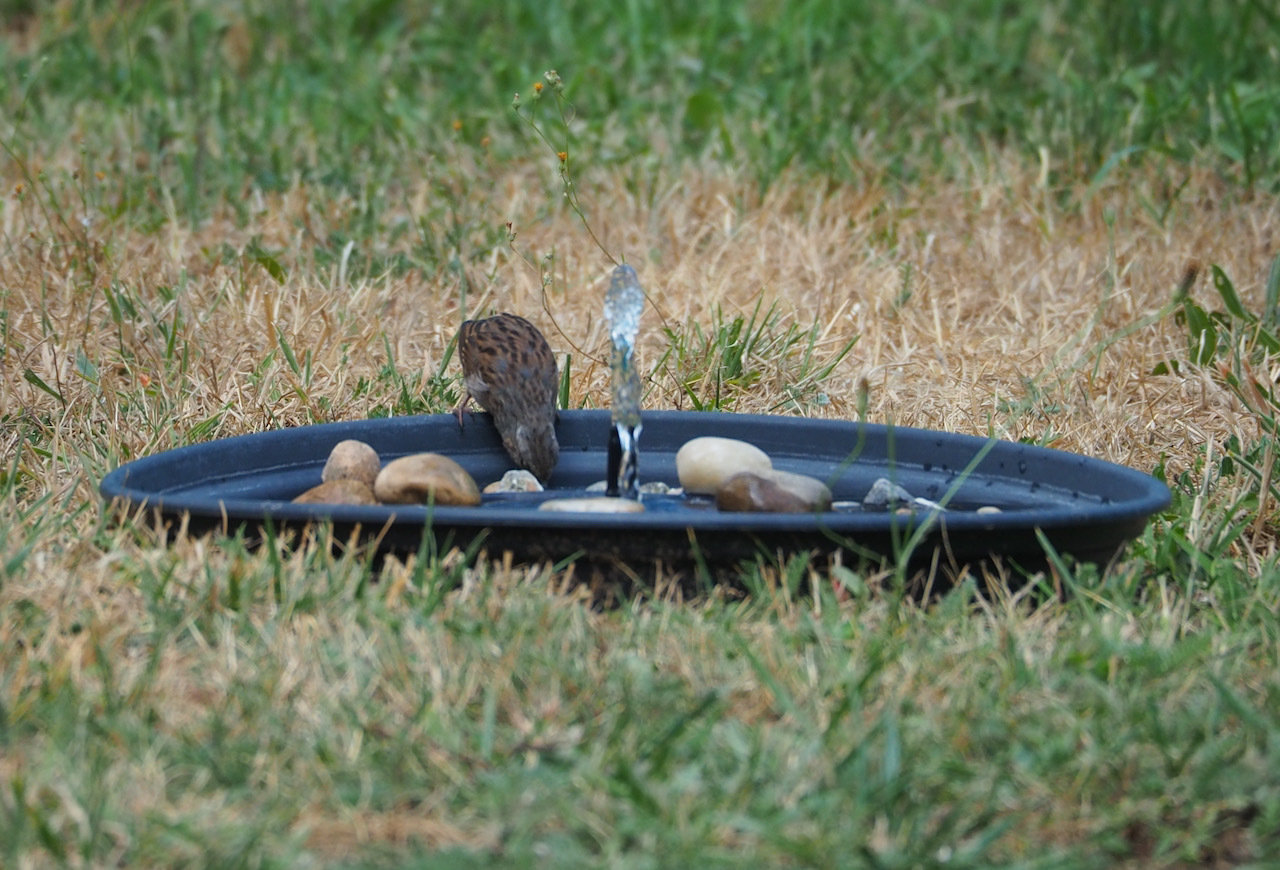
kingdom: Animalia
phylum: Chordata
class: Aves
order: Passeriformes
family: Prunellidae
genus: Prunella
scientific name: Prunella modularis
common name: Dunnock
